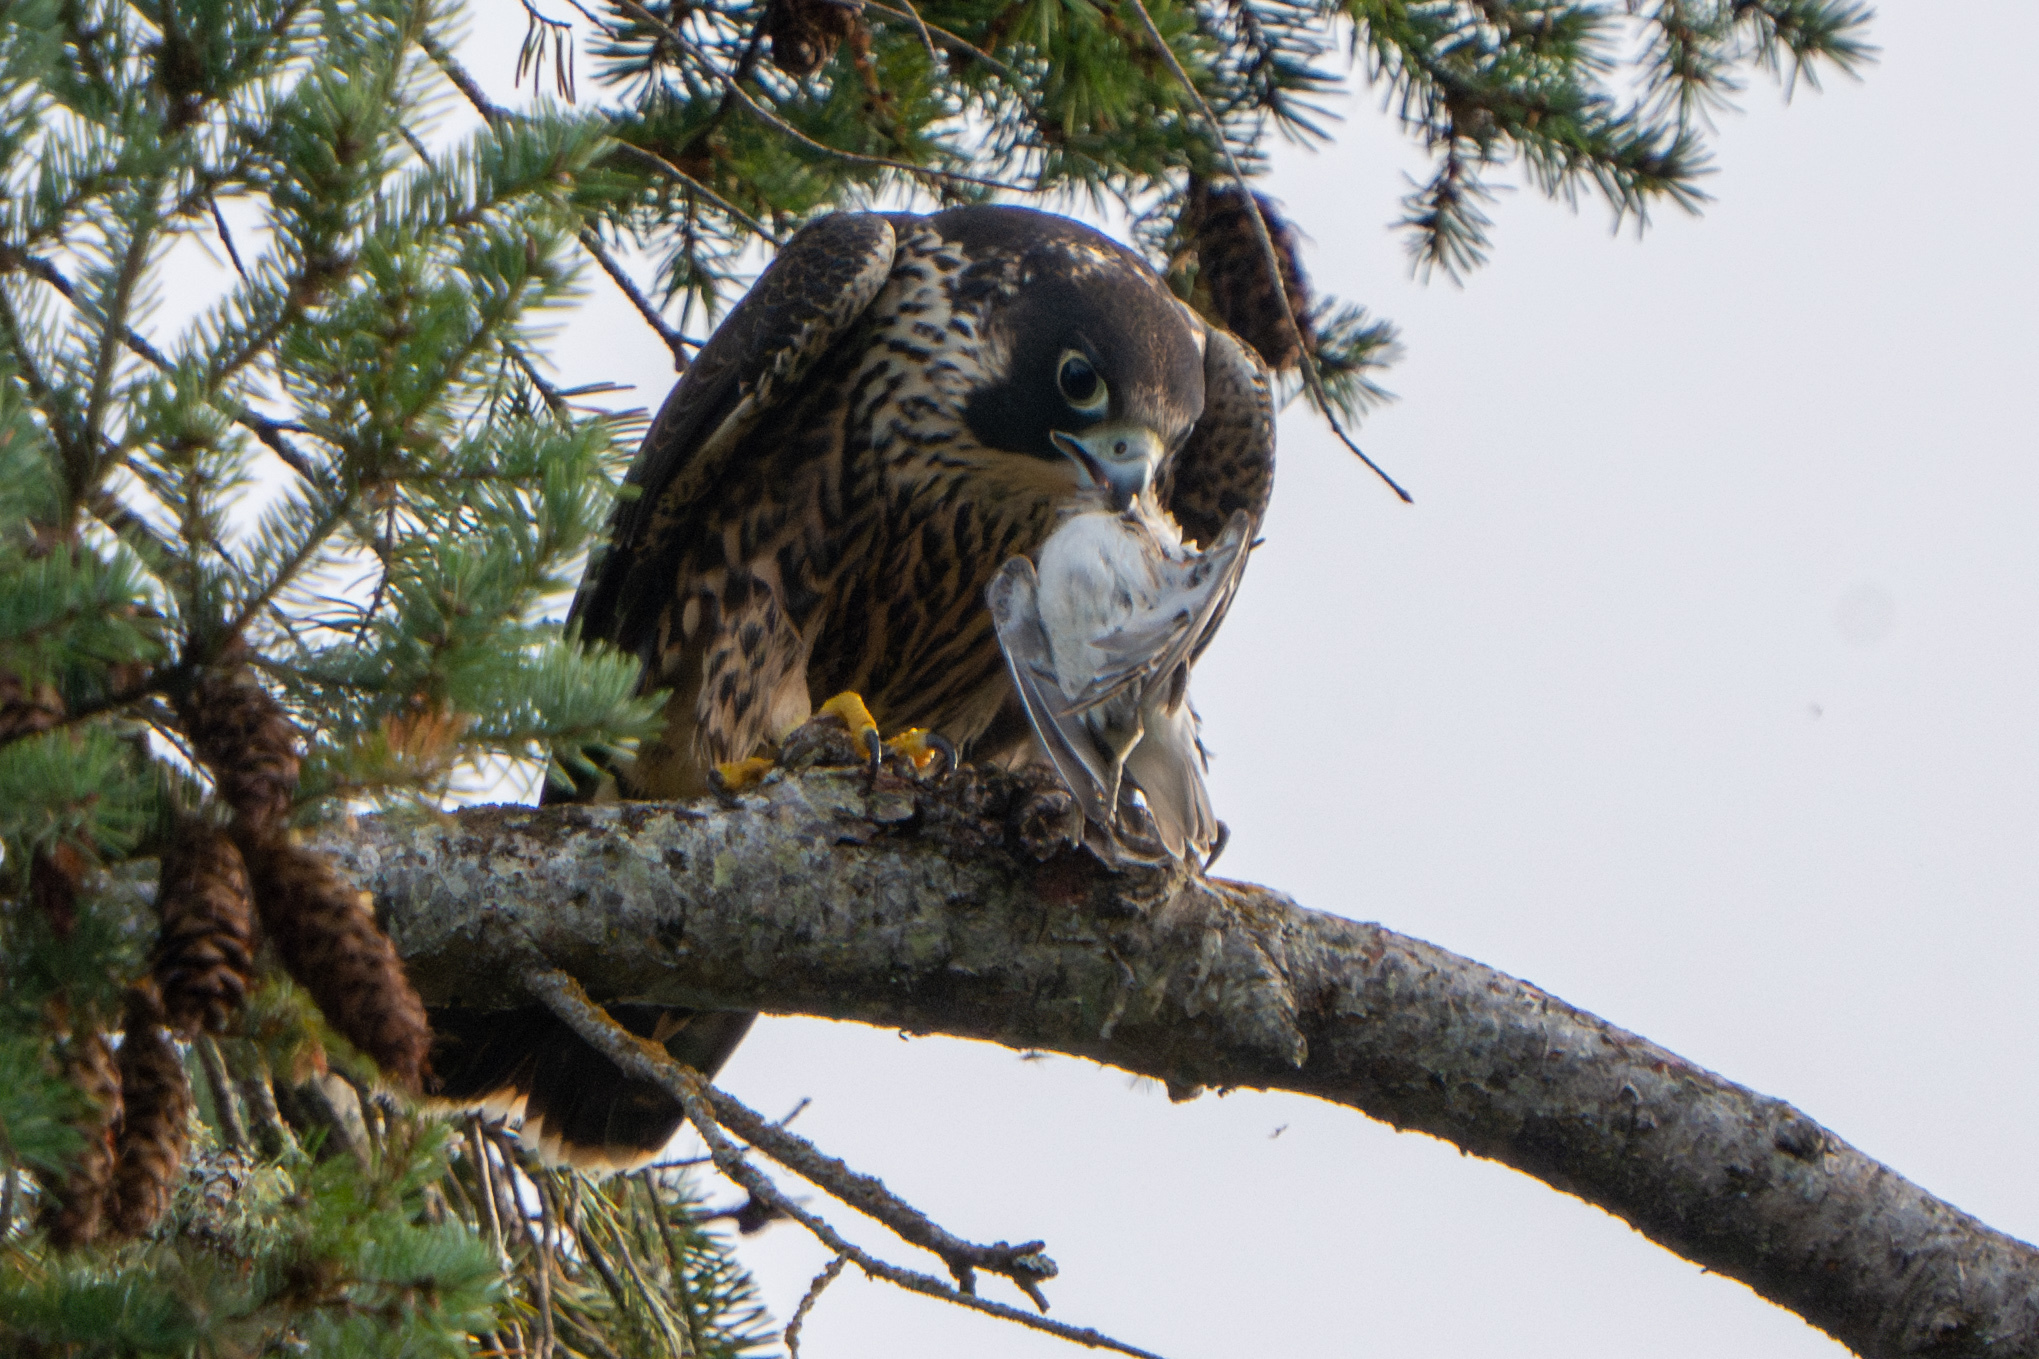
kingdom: Animalia
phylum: Chordata
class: Aves
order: Falconiformes
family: Falconidae
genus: Falco
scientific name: Falco peregrinus
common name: Peregrine falcon
